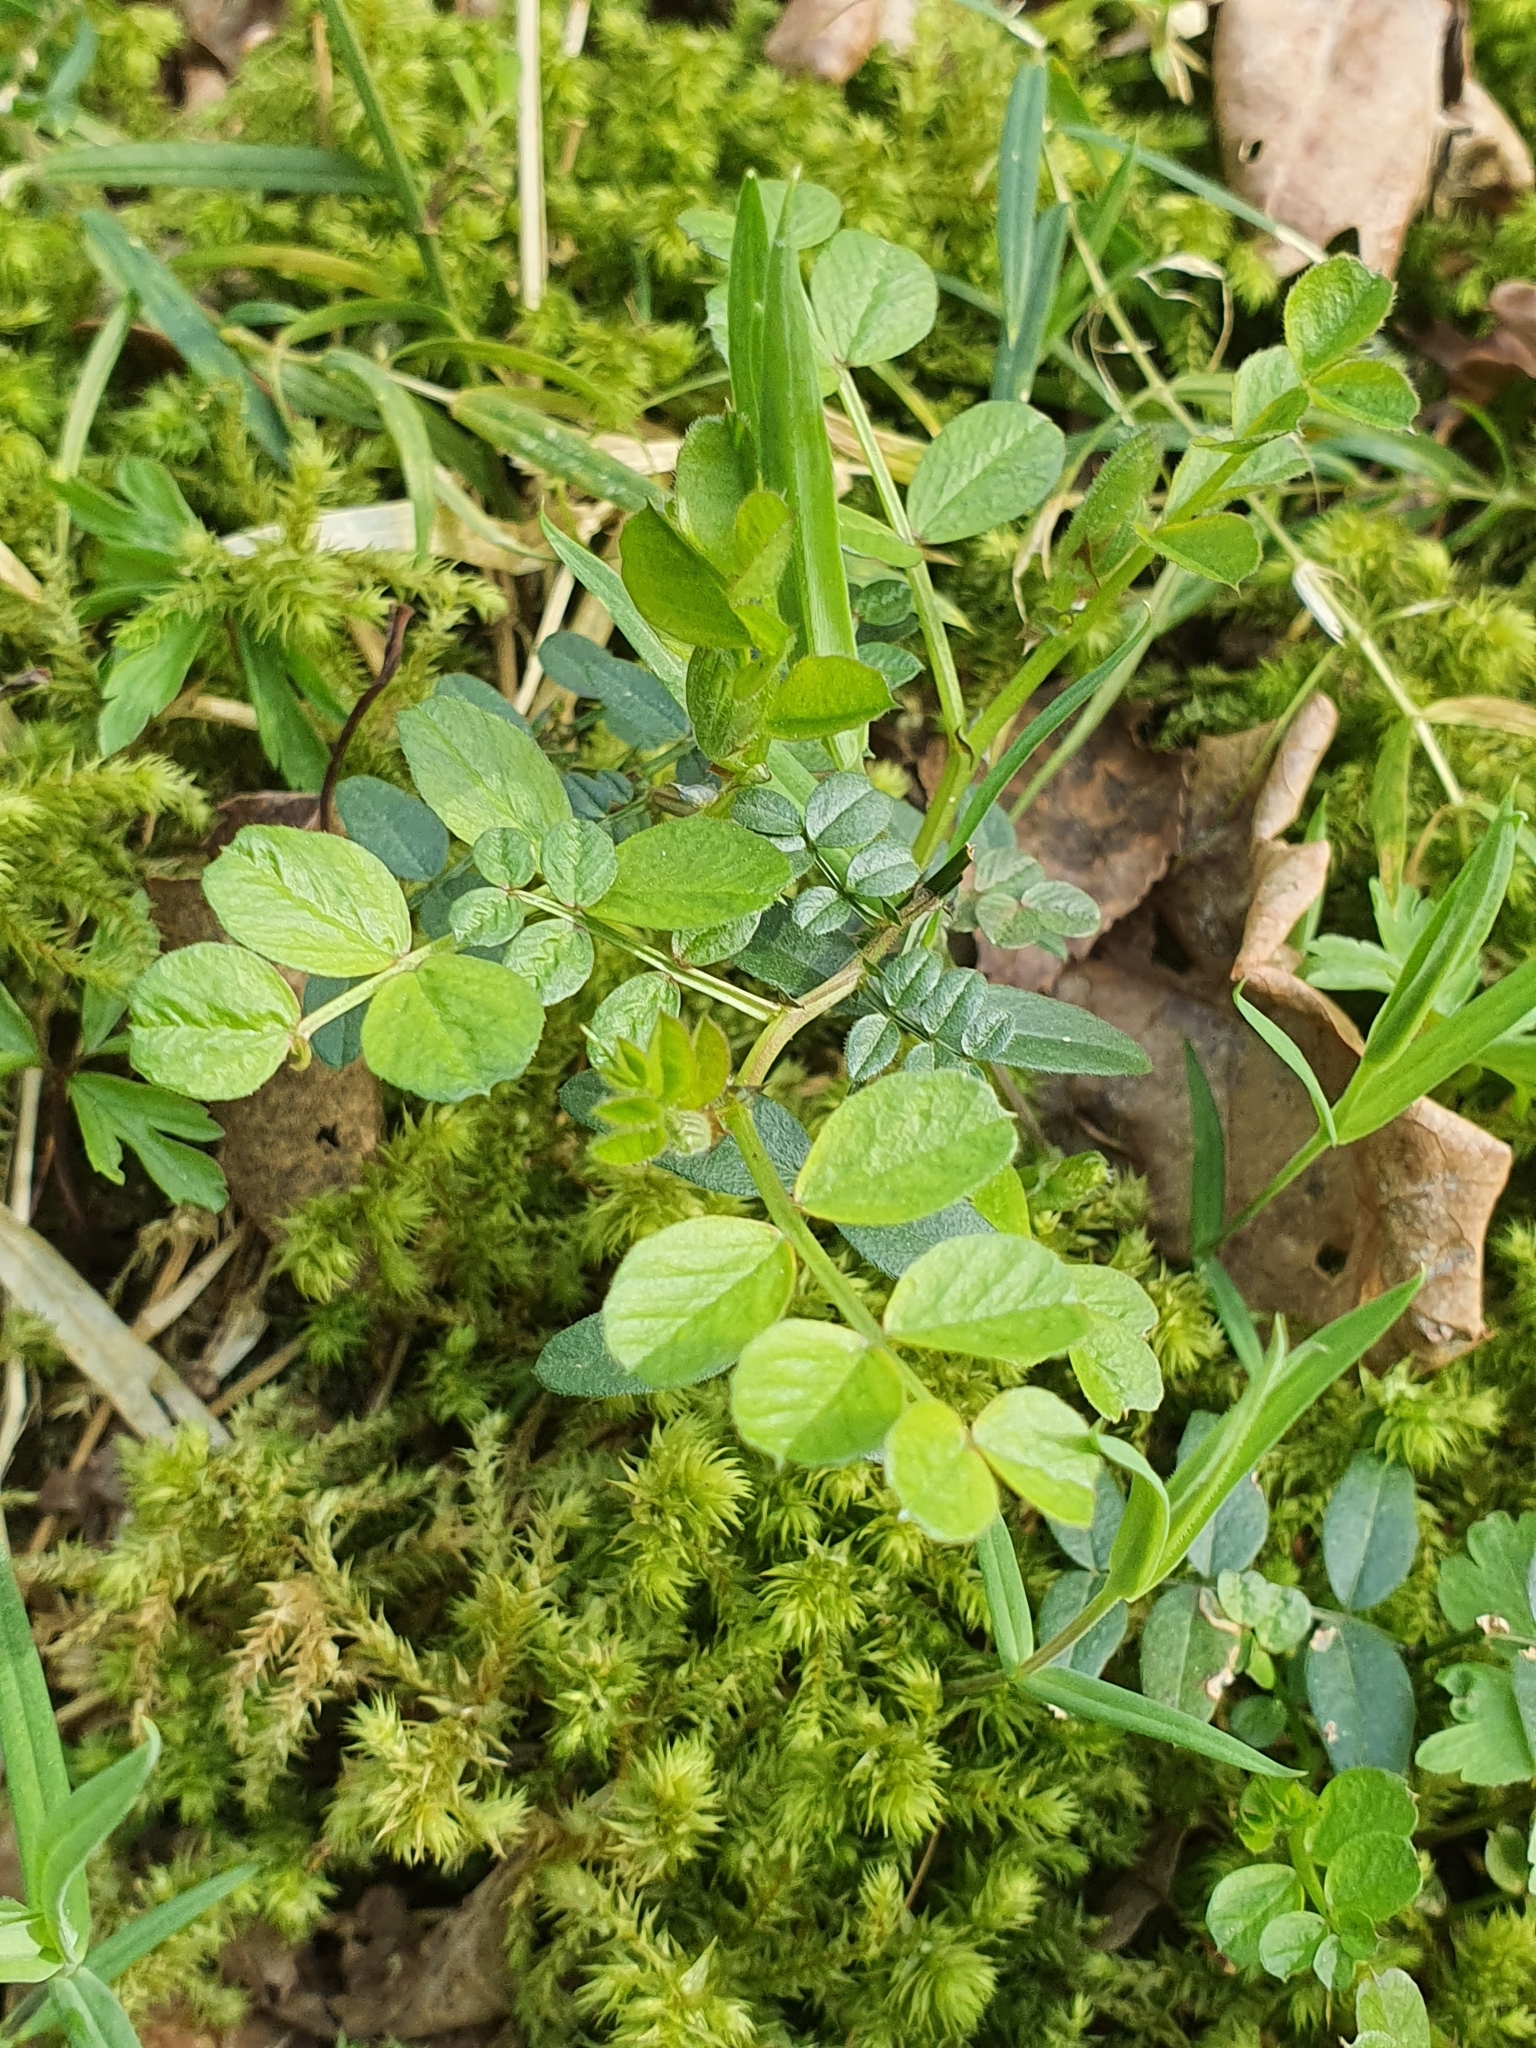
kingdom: Plantae
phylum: Tracheophyta
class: Magnoliopsida
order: Fabales
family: Fabaceae
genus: Vicia
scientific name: Vicia sepium
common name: Bush vetch
